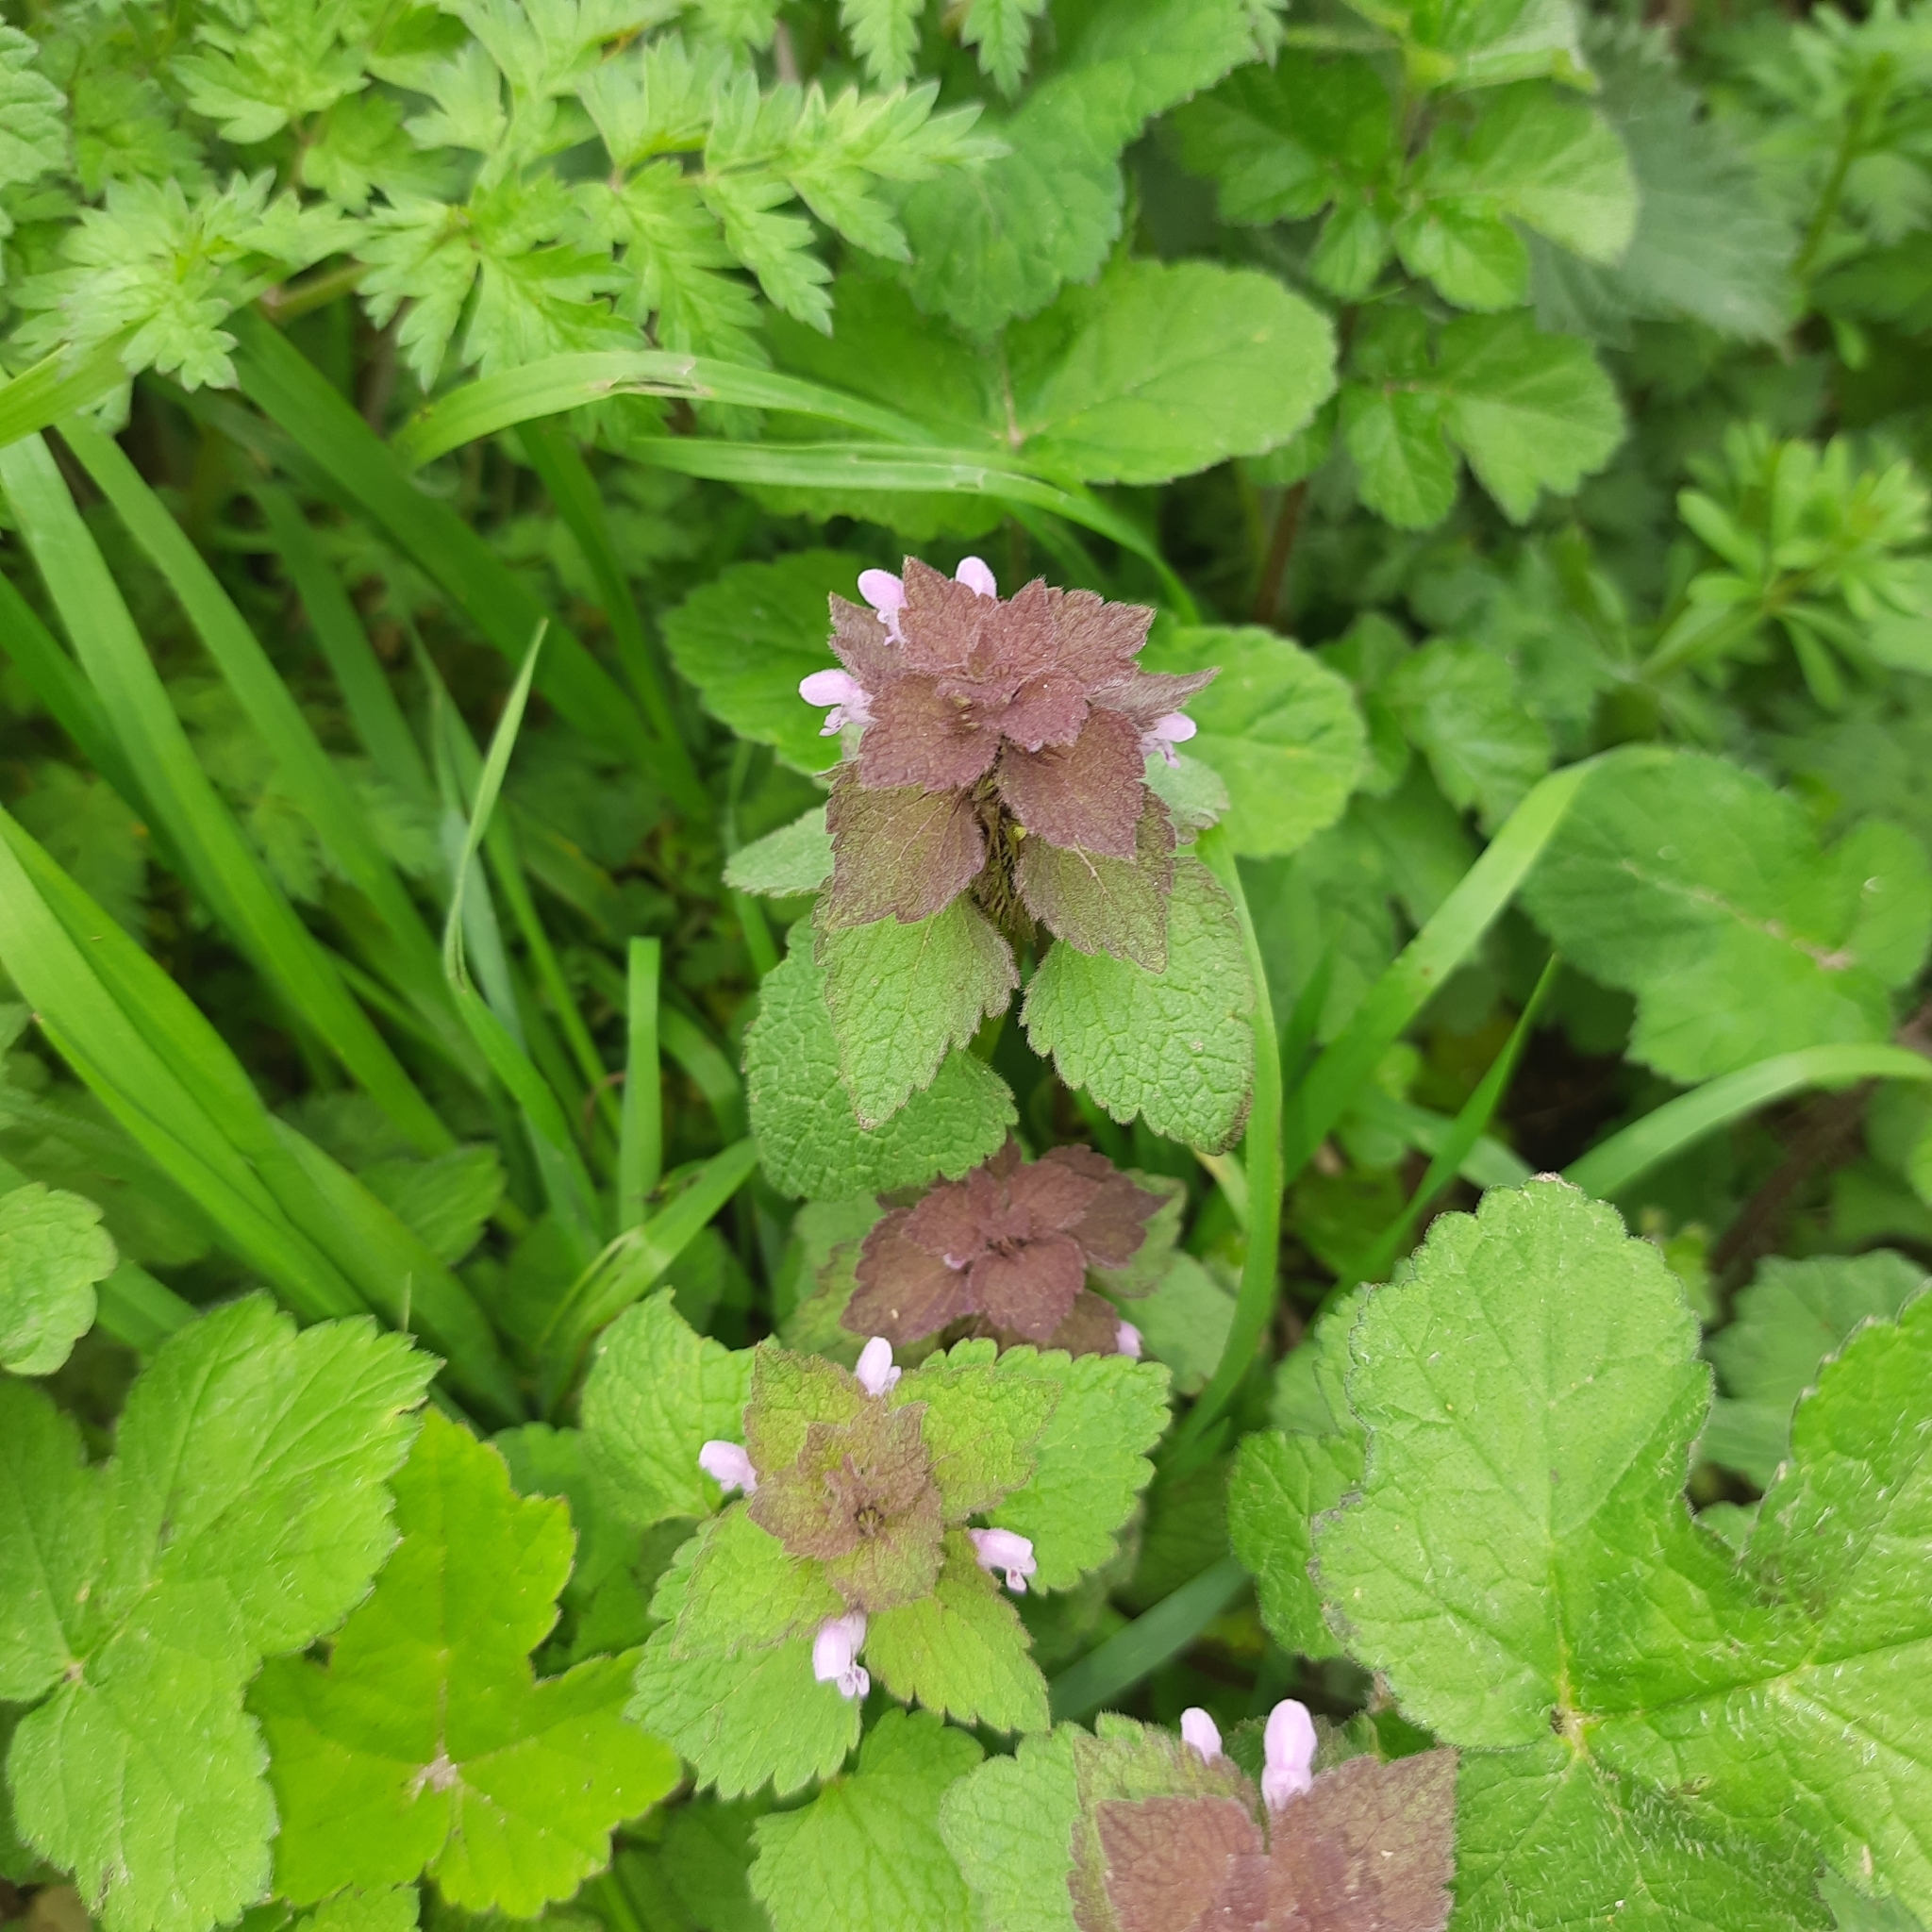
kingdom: Plantae
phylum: Tracheophyta
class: Magnoliopsida
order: Lamiales
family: Lamiaceae
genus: Lamium
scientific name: Lamium purpureum
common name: Red dead-nettle
